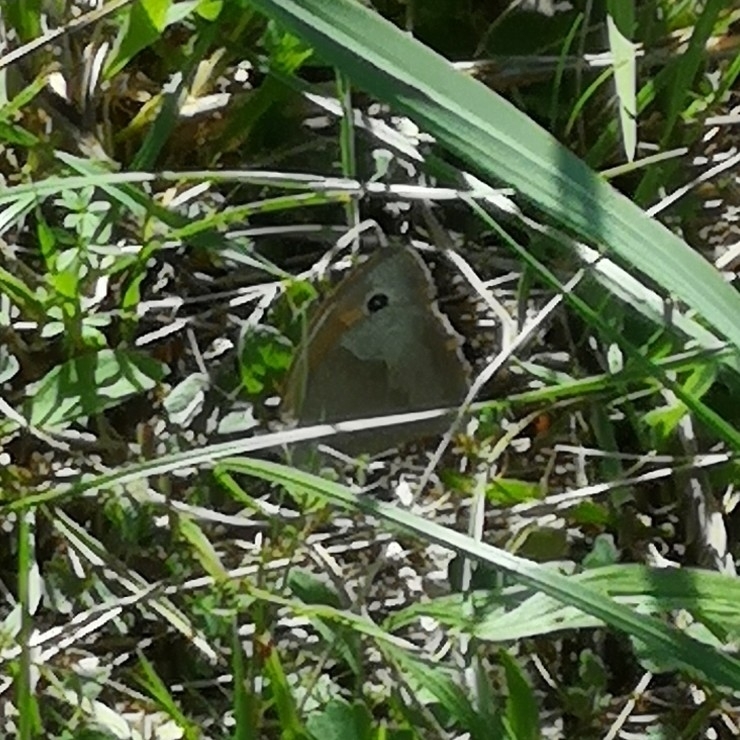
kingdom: Animalia
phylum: Arthropoda
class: Insecta
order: Lepidoptera
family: Nymphalidae
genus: Maniola
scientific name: Maniola jurtina
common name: Meadow brown
